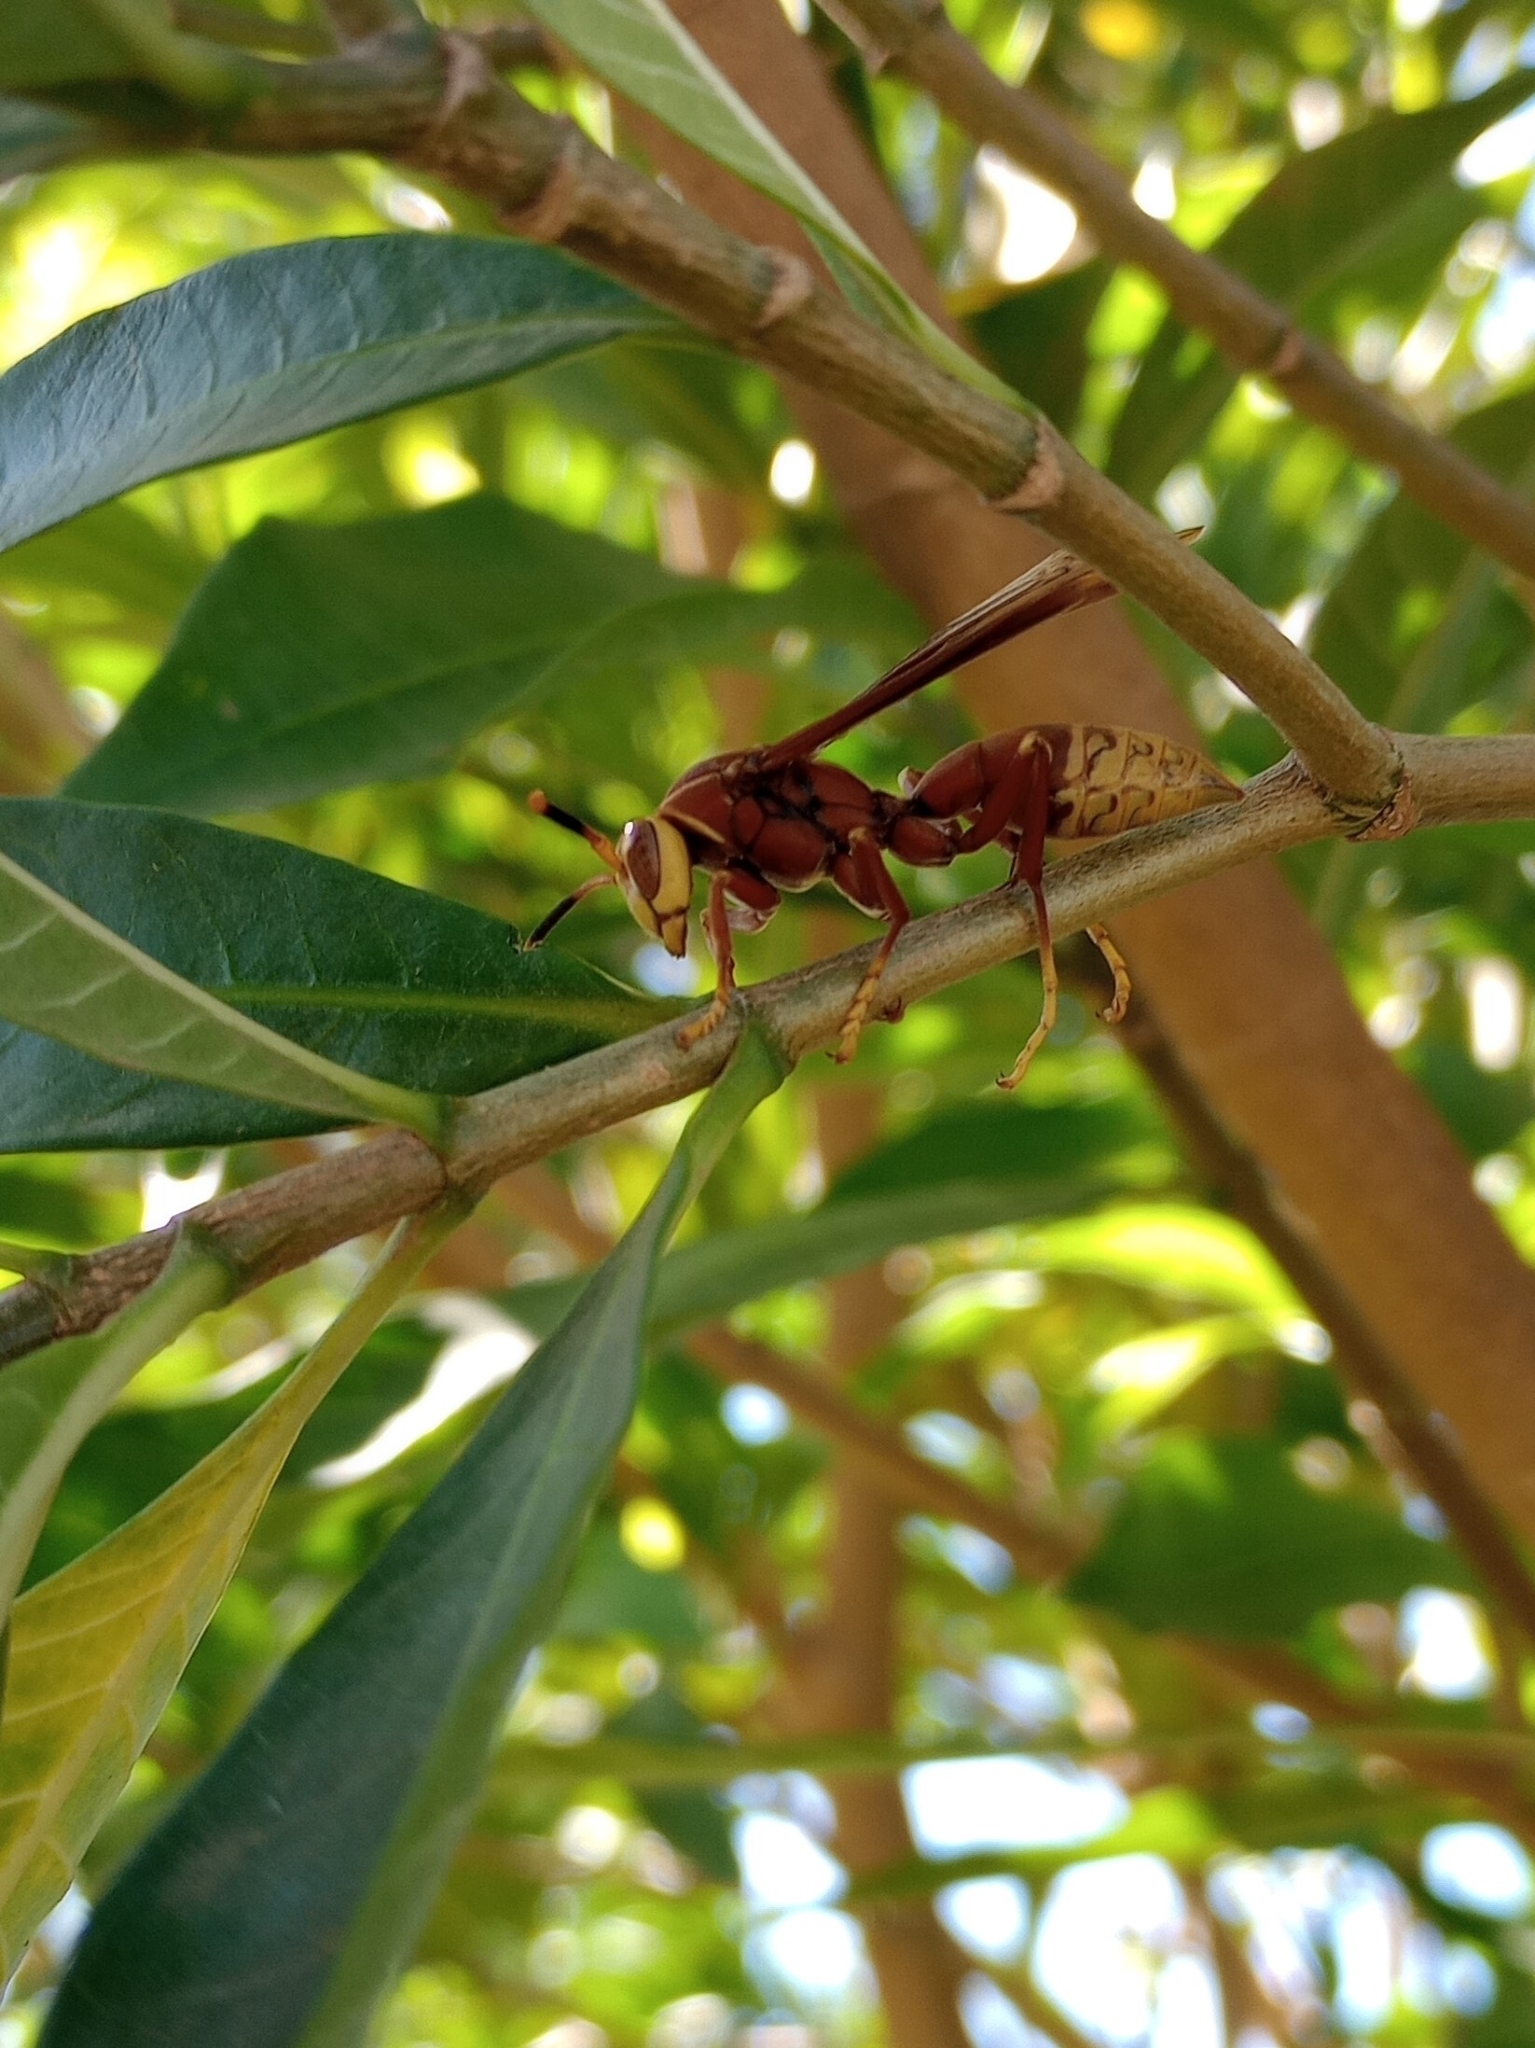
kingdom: Animalia
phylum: Arthropoda
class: Insecta
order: Hymenoptera
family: Eumenidae
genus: Polistes
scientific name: Polistes cavapyta
